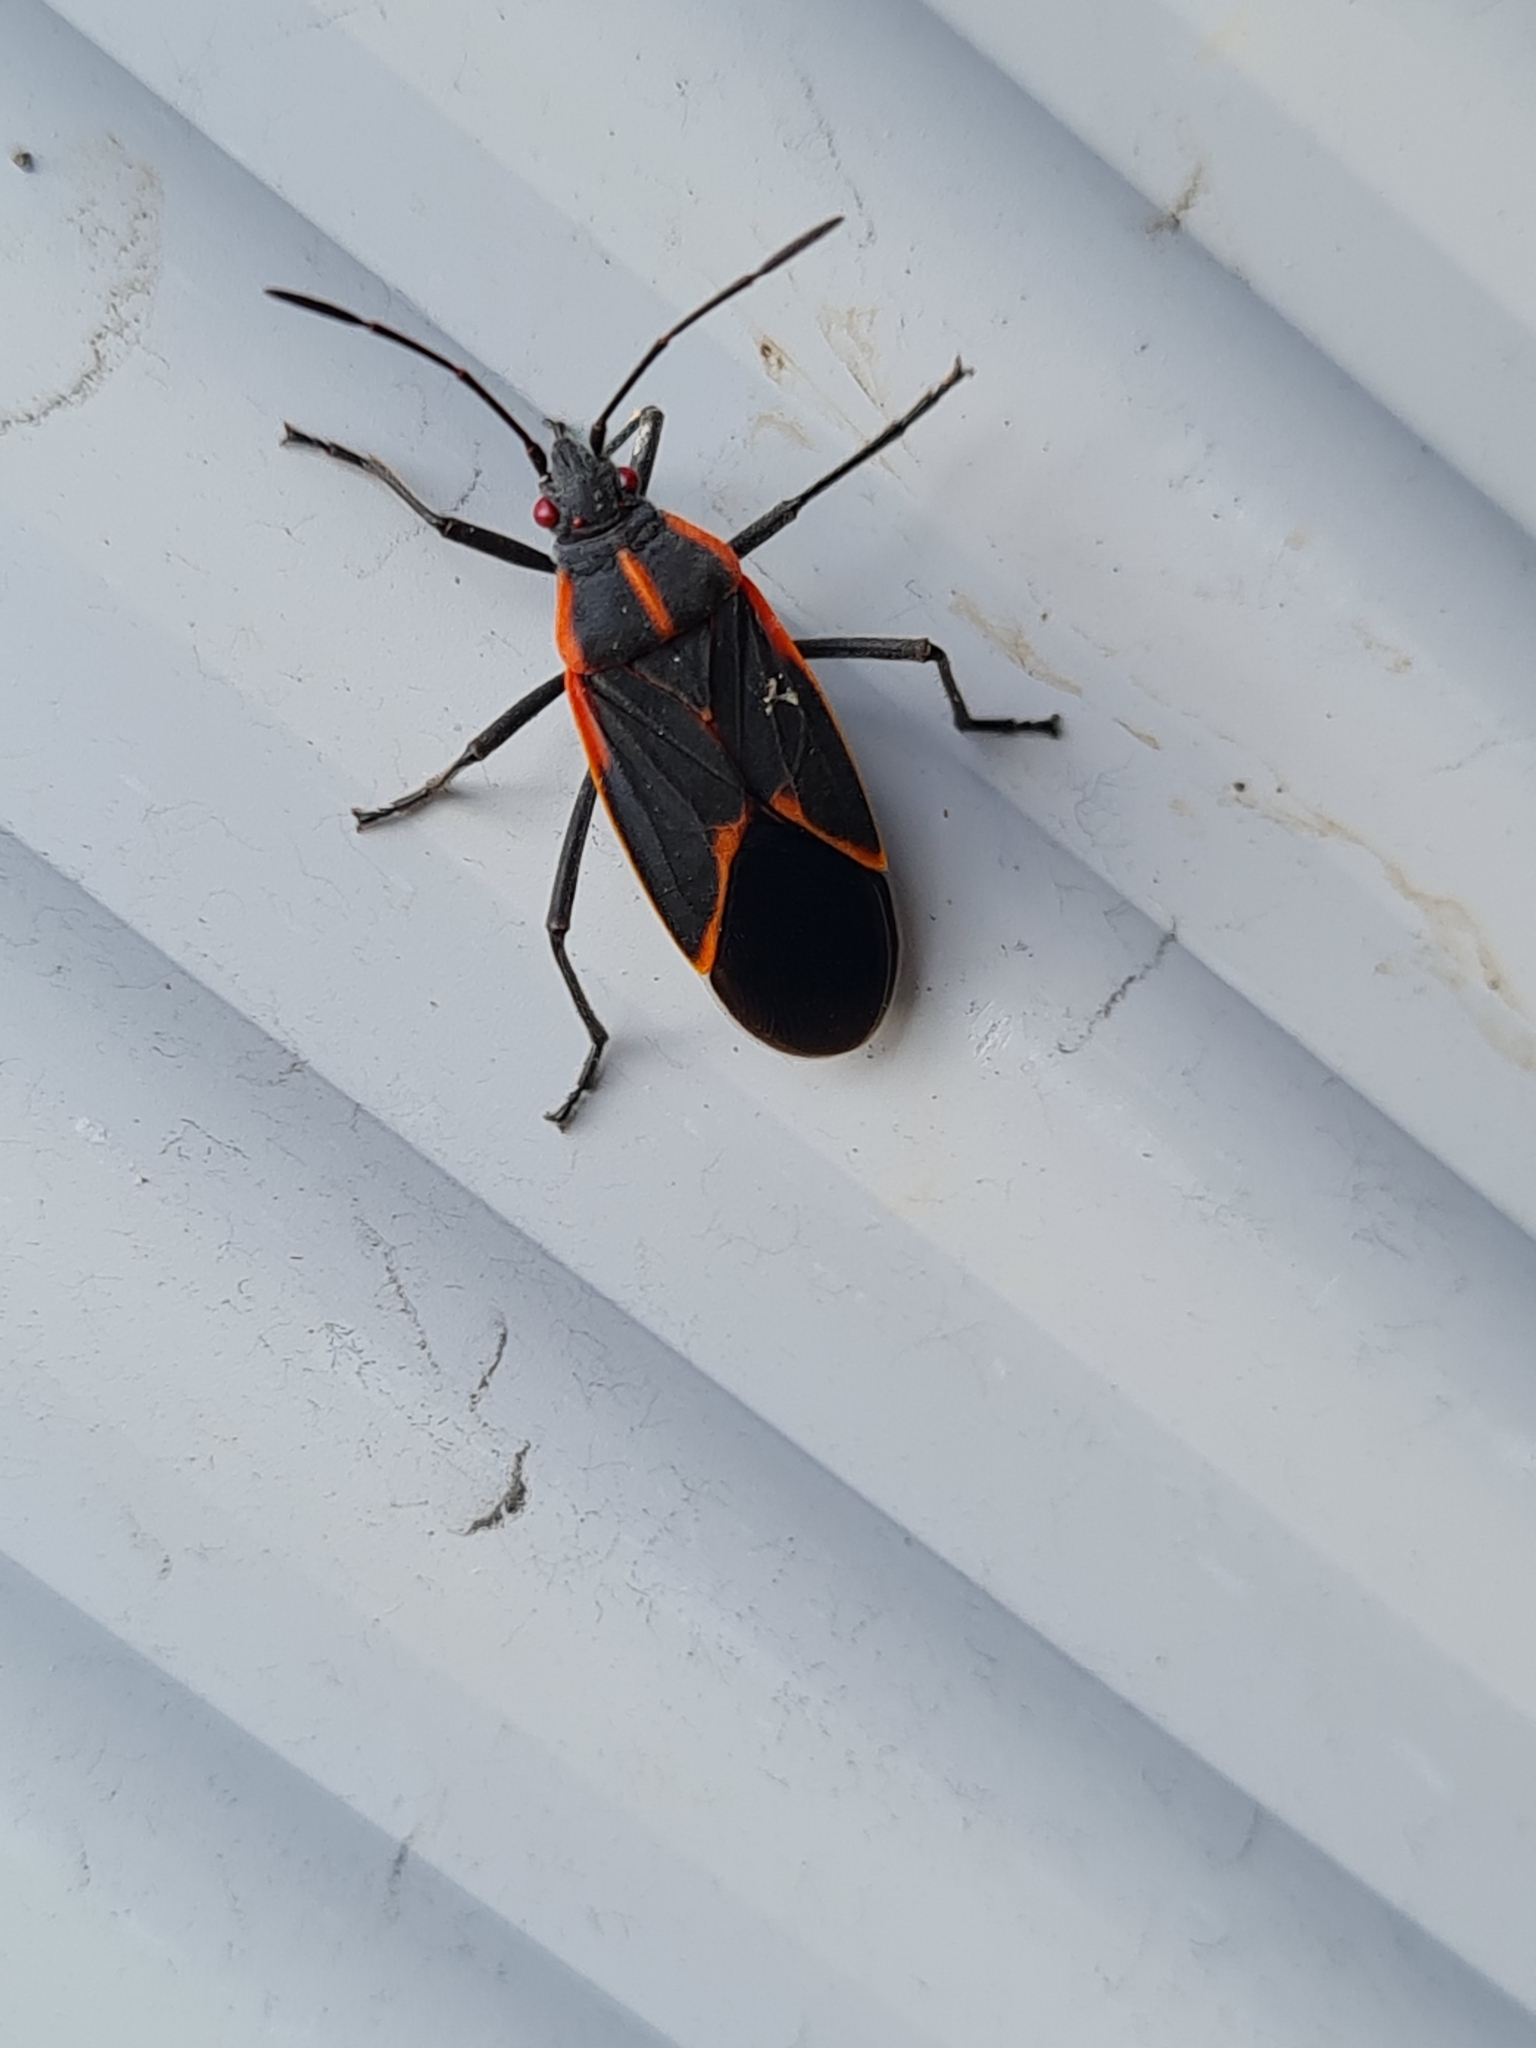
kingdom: Animalia
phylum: Arthropoda
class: Insecta
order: Hemiptera
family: Rhopalidae
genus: Boisea
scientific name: Boisea trivittata
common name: Boxelder bug
